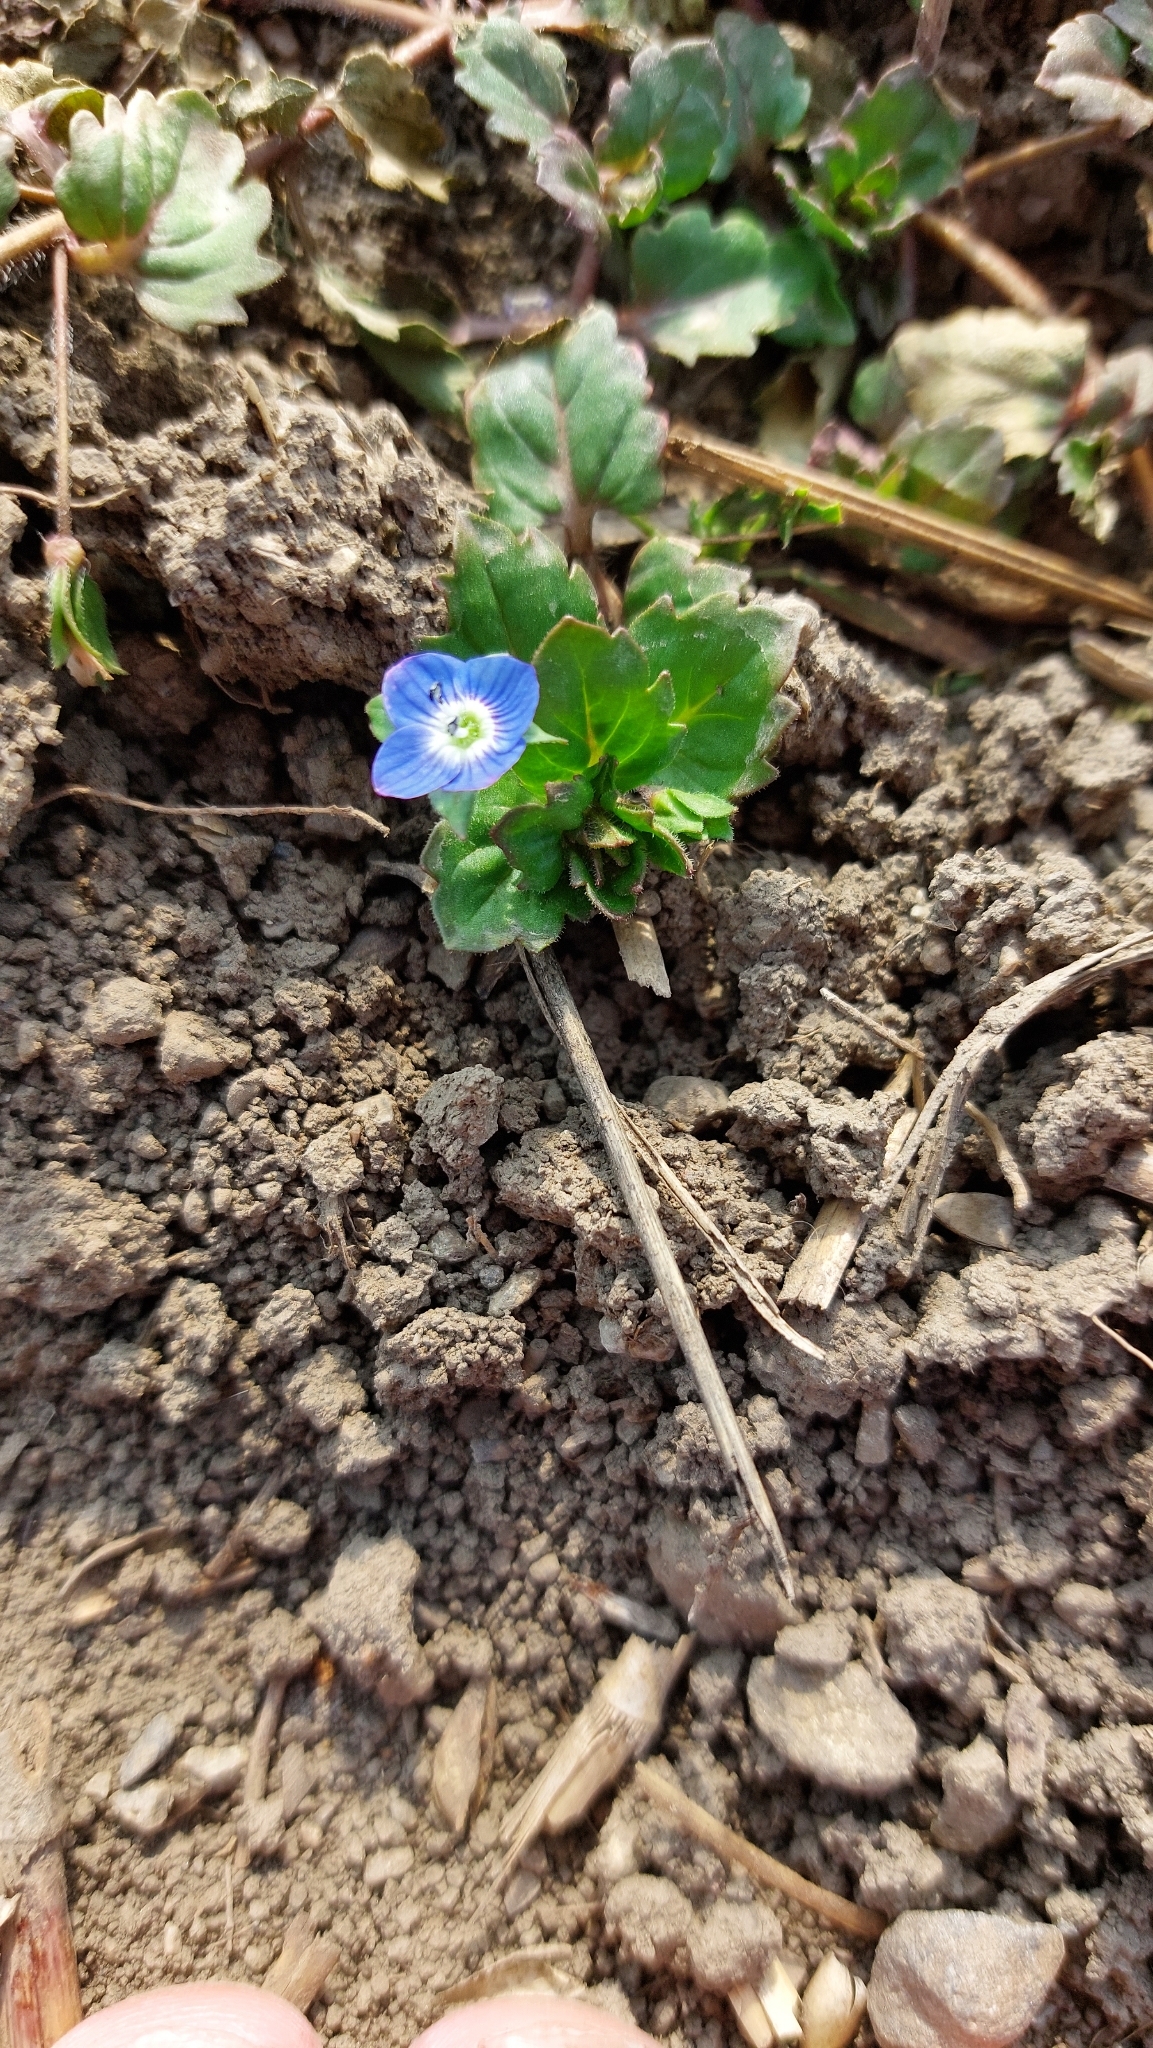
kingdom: Plantae
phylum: Tracheophyta
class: Magnoliopsida
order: Lamiales
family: Plantaginaceae
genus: Veronica
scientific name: Veronica persica
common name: Common field-speedwell
